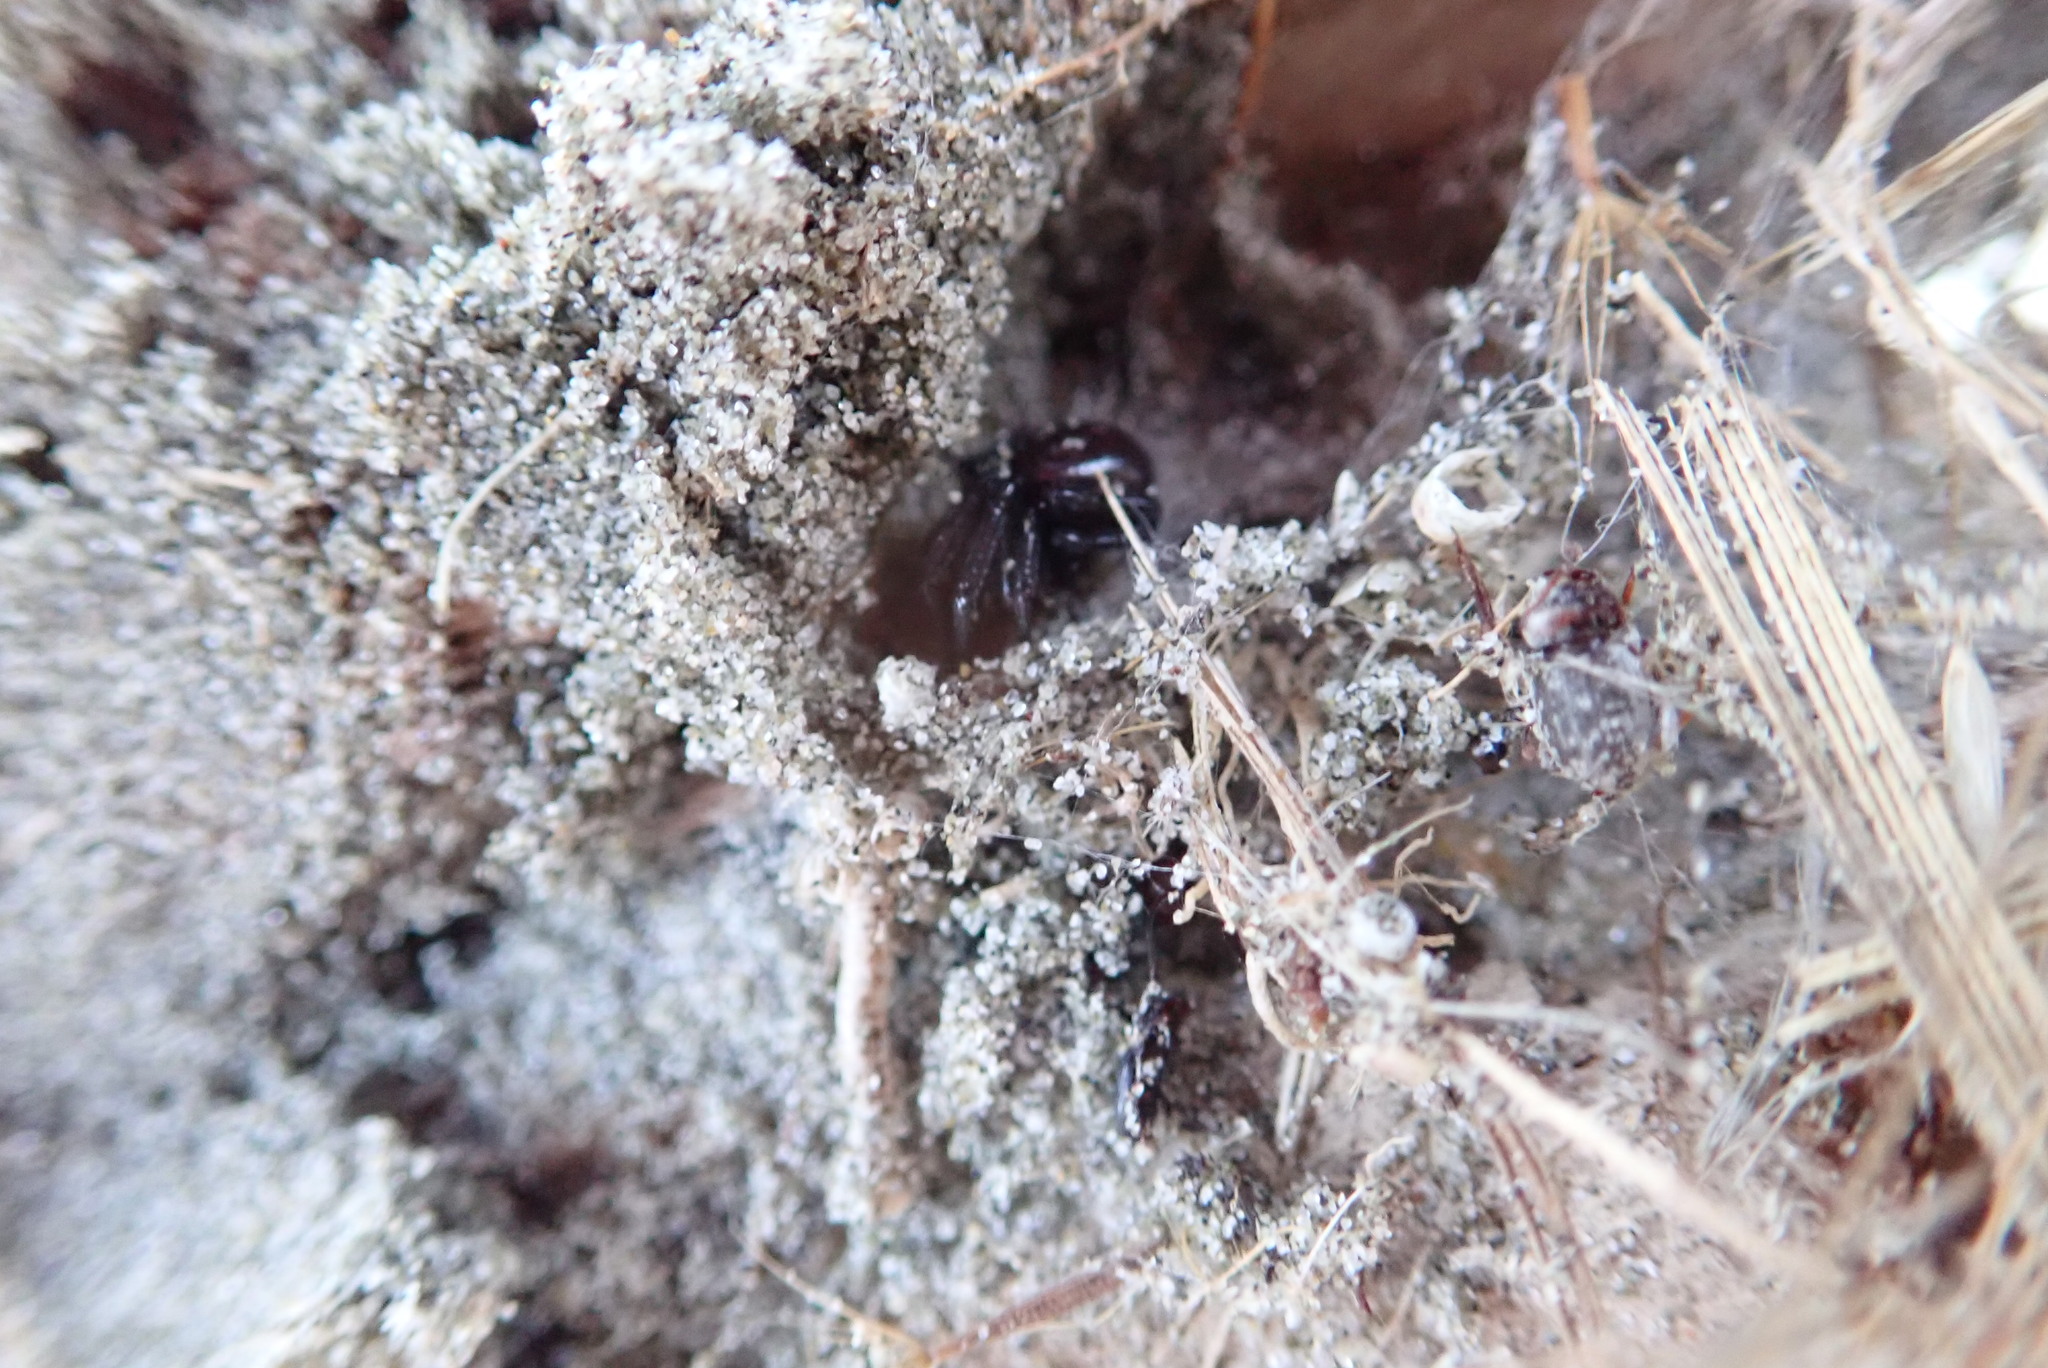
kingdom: Animalia
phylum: Arthropoda
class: Arachnida
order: Araneae
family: Theridiidae
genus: Steatoda
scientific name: Steatoda capensis
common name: Cobweb weaver
